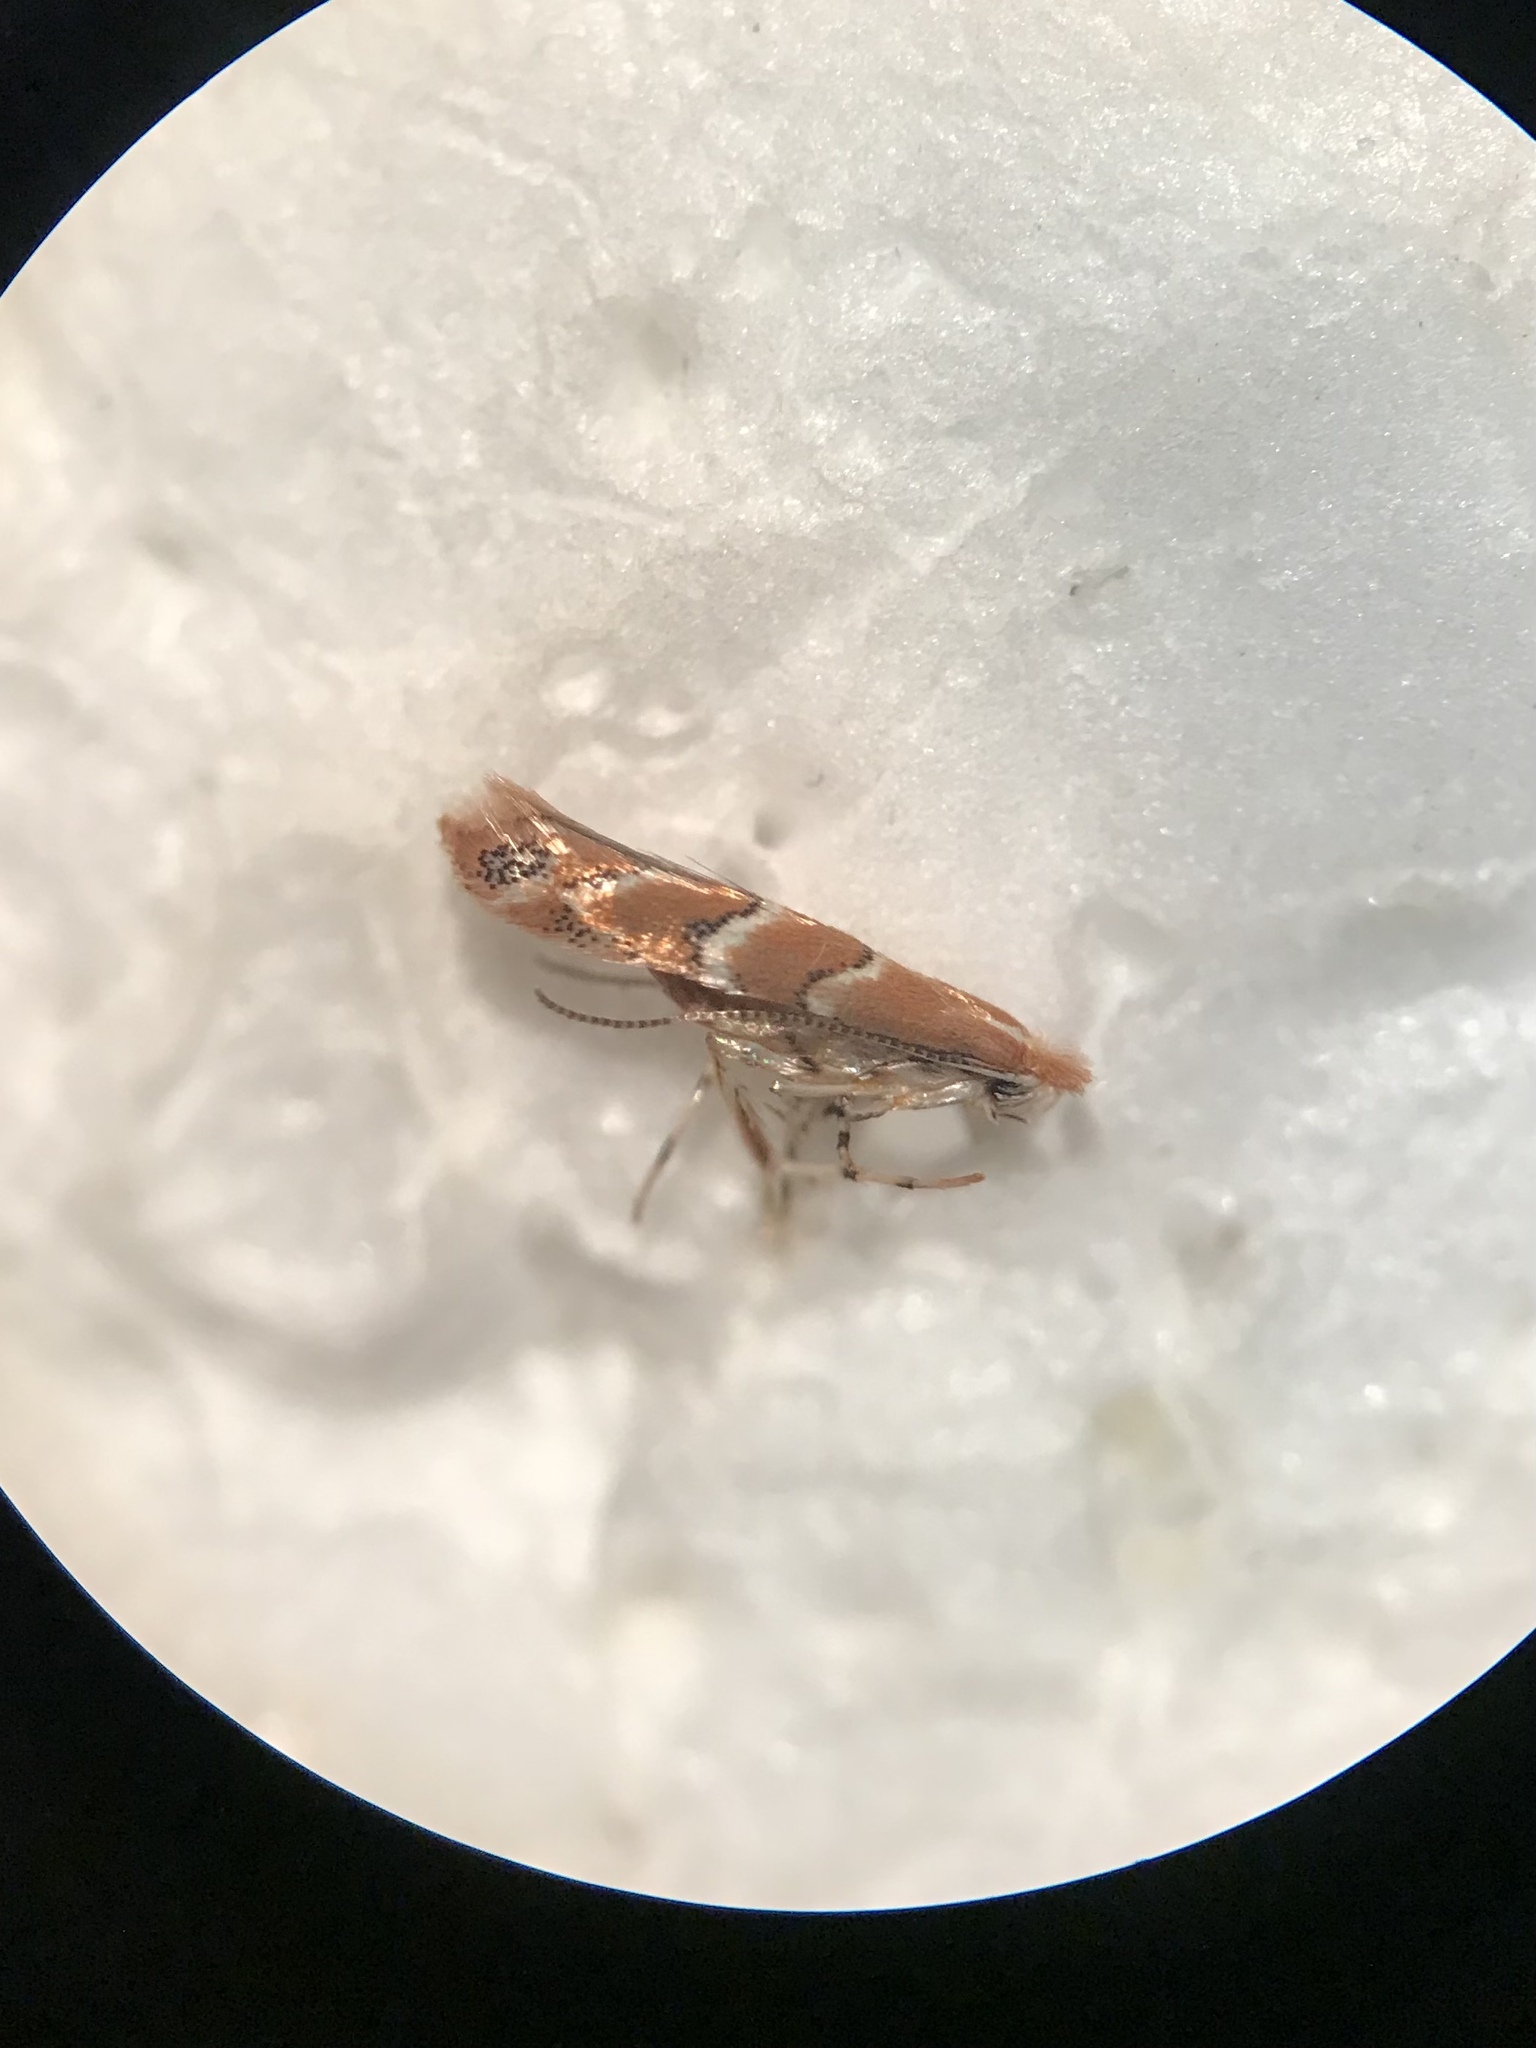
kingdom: Animalia
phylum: Arthropoda
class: Insecta
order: Lepidoptera
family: Gracillariidae
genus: Cameraria
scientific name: Cameraria lentella
